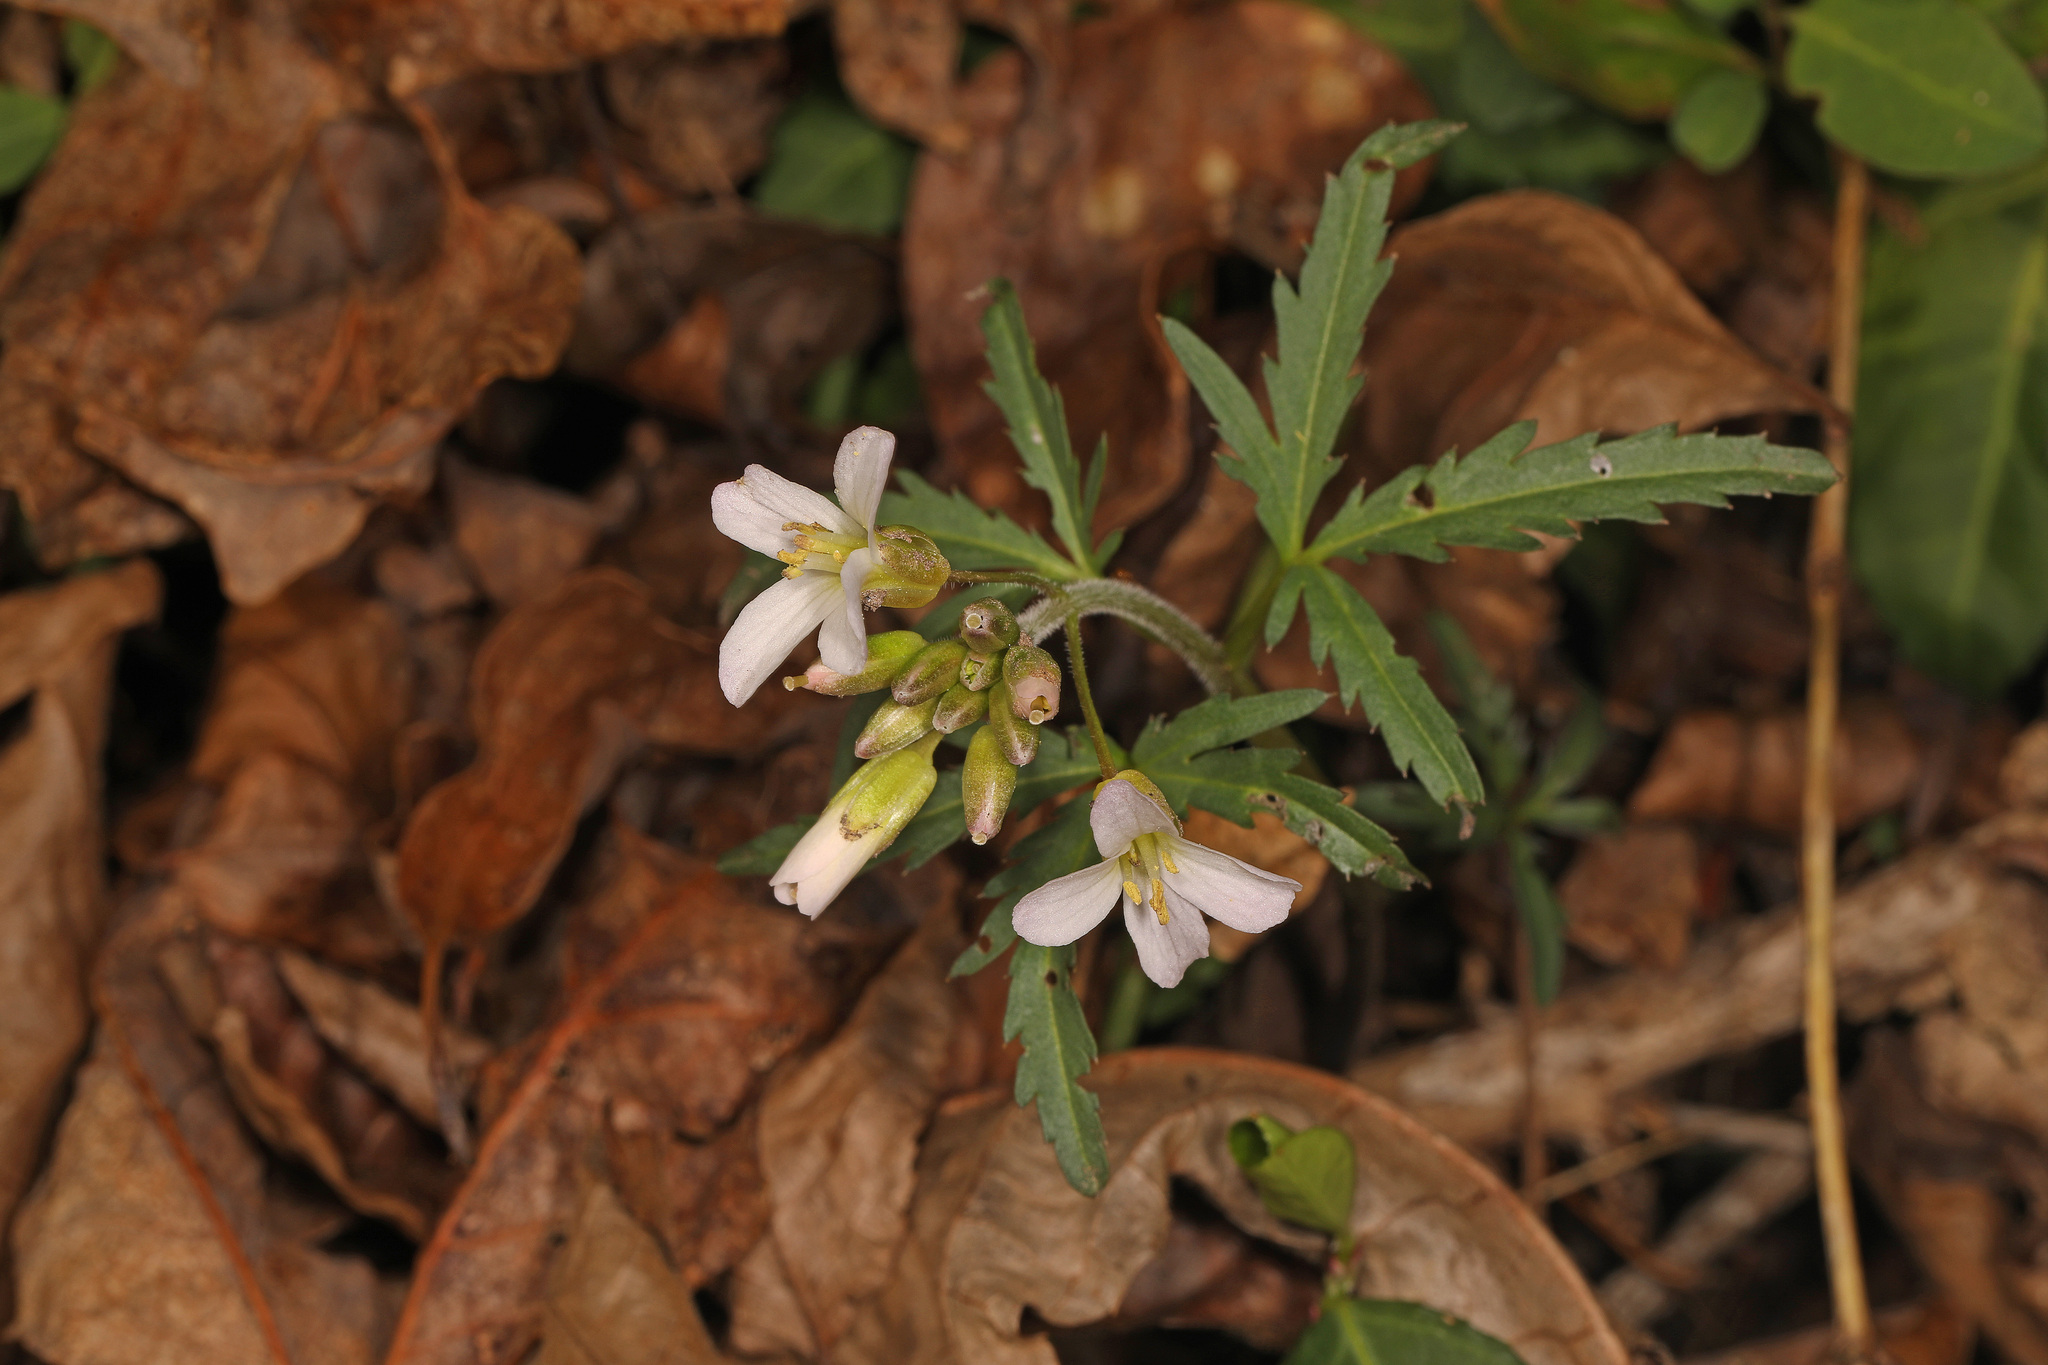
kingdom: Plantae
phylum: Tracheophyta
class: Magnoliopsida
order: Brassicales
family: Brassicaceae
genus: Cardamine
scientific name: Cardamine concatenata
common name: Cut-leaf toothcup
